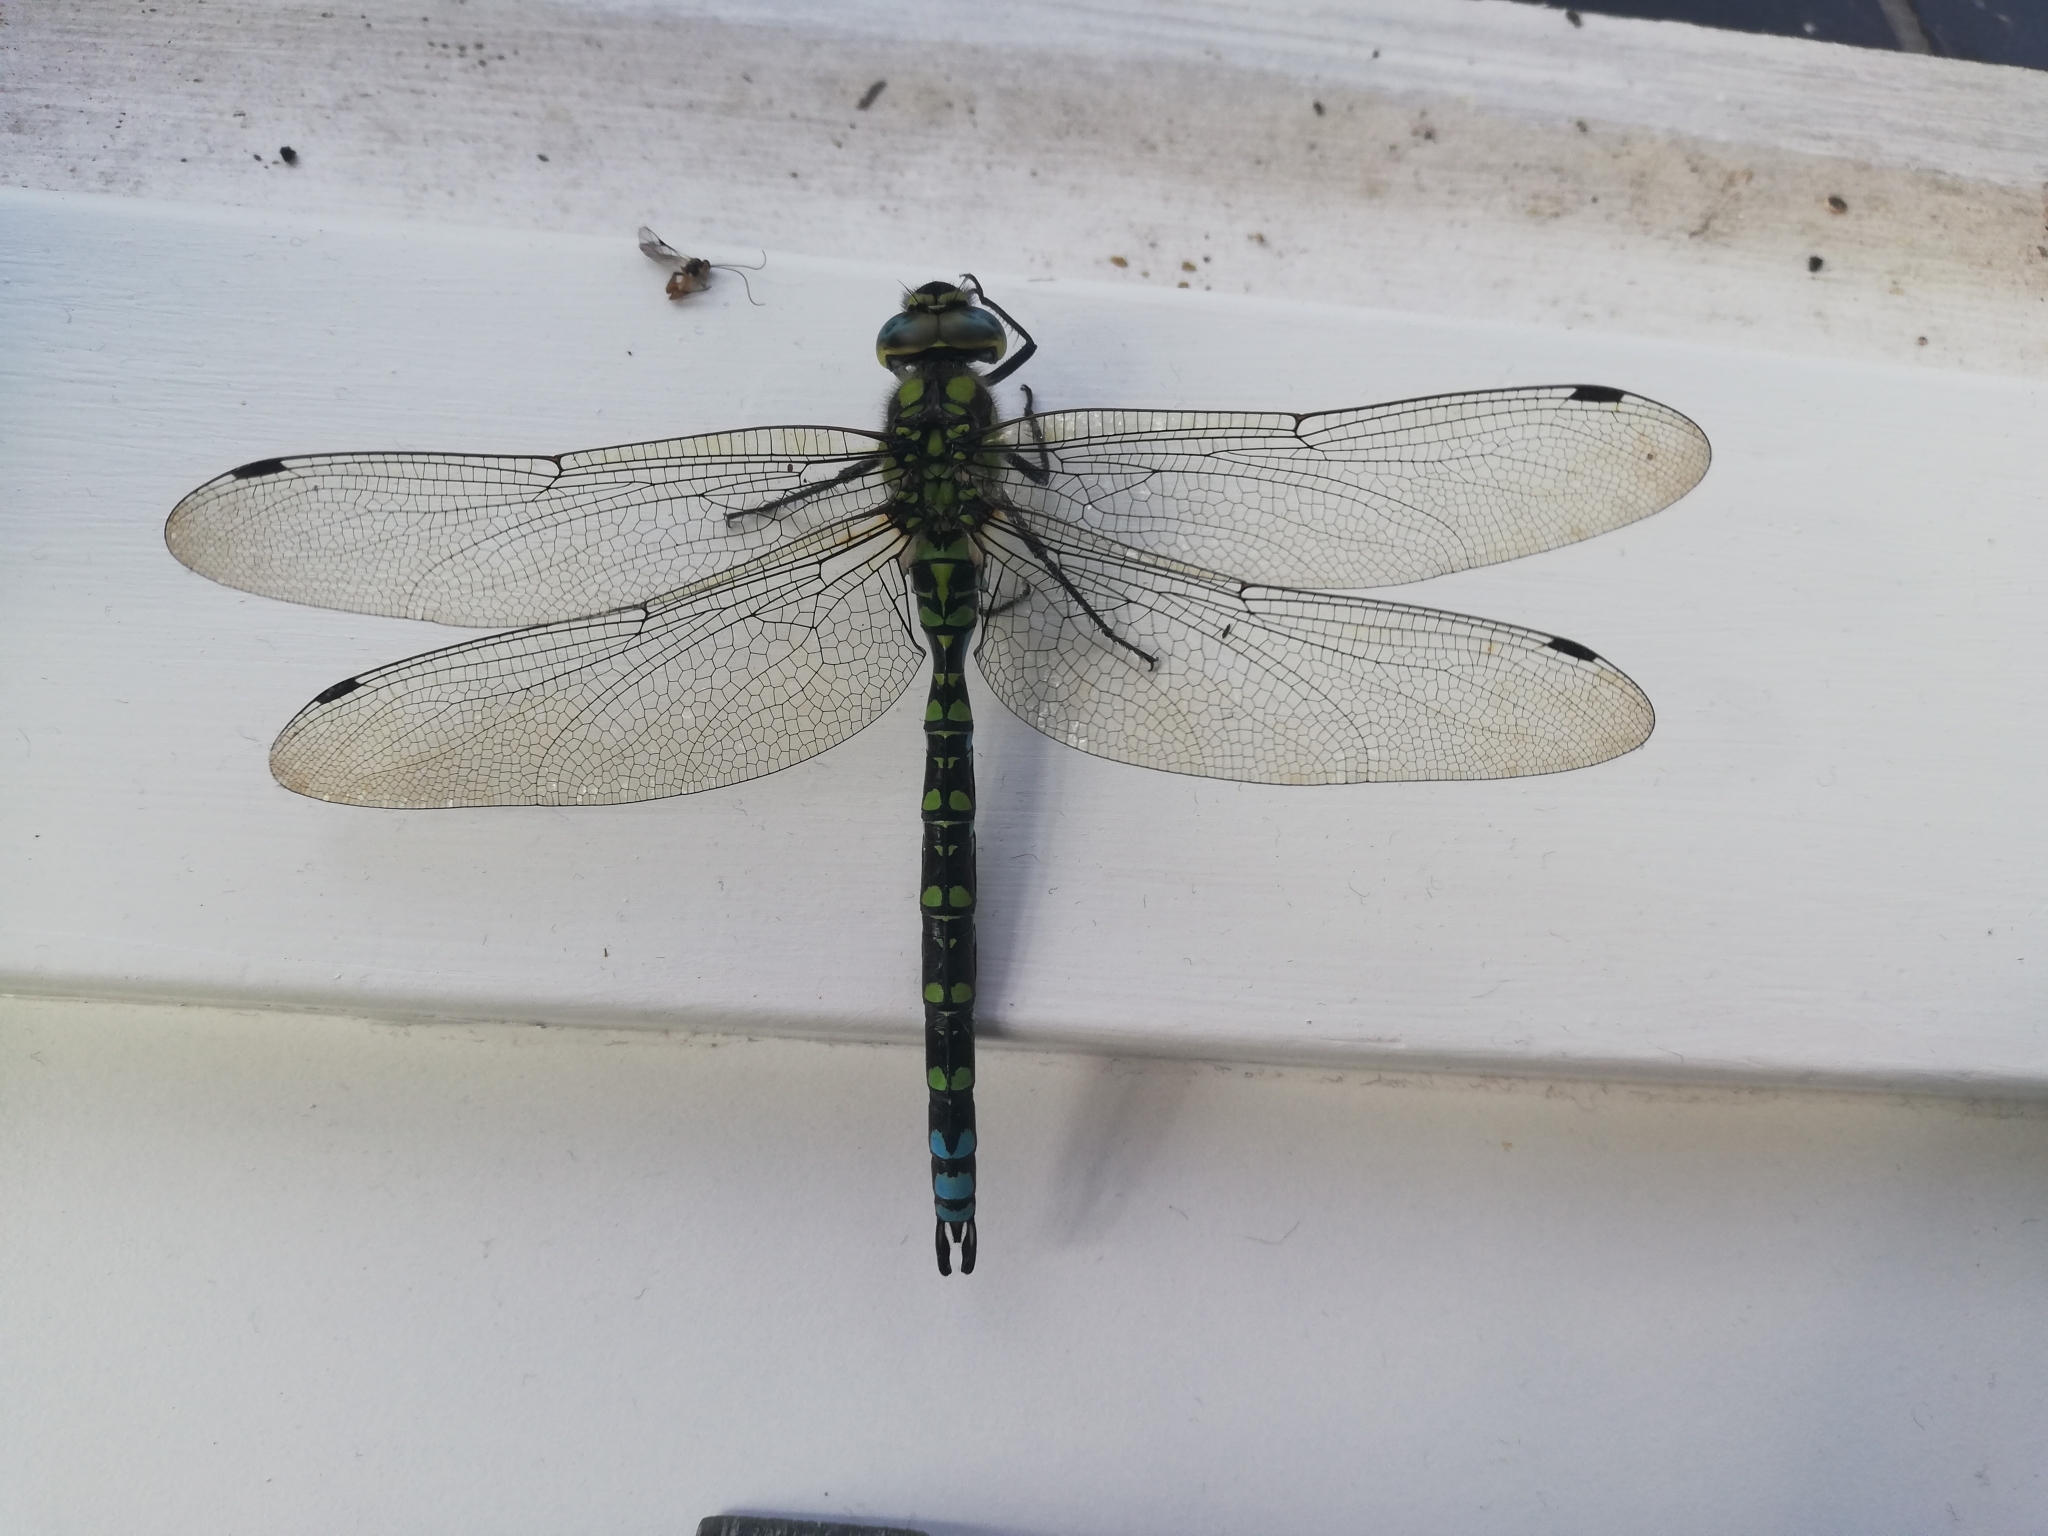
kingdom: Animalia
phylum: Arthropoda
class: Insecta
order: Odonata
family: Aeshnidae
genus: Aeshna
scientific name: Aeshna cyanea
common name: Southern hawker
